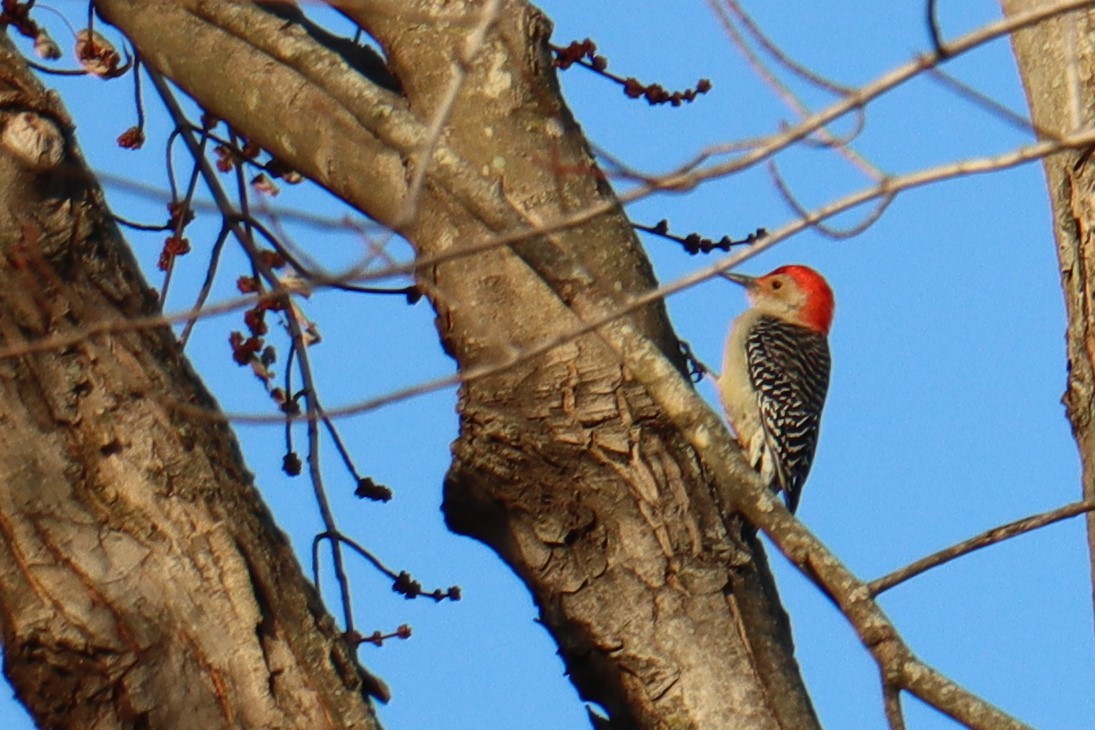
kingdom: Animalia
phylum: Chordata
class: Aves
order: Piciformes
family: Picidae
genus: Melanerpes
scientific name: Melanerpes carolinus
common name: Red-bellied woodpecker
